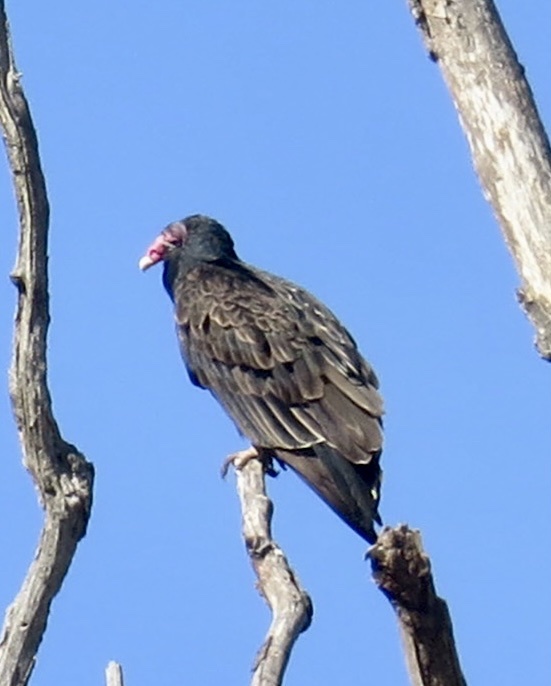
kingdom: Animalia
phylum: Chordata
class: Aves
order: Accipitriformes
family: Cathartidae
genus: Cathartes
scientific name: Cathartes aura
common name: Turkey vulture
